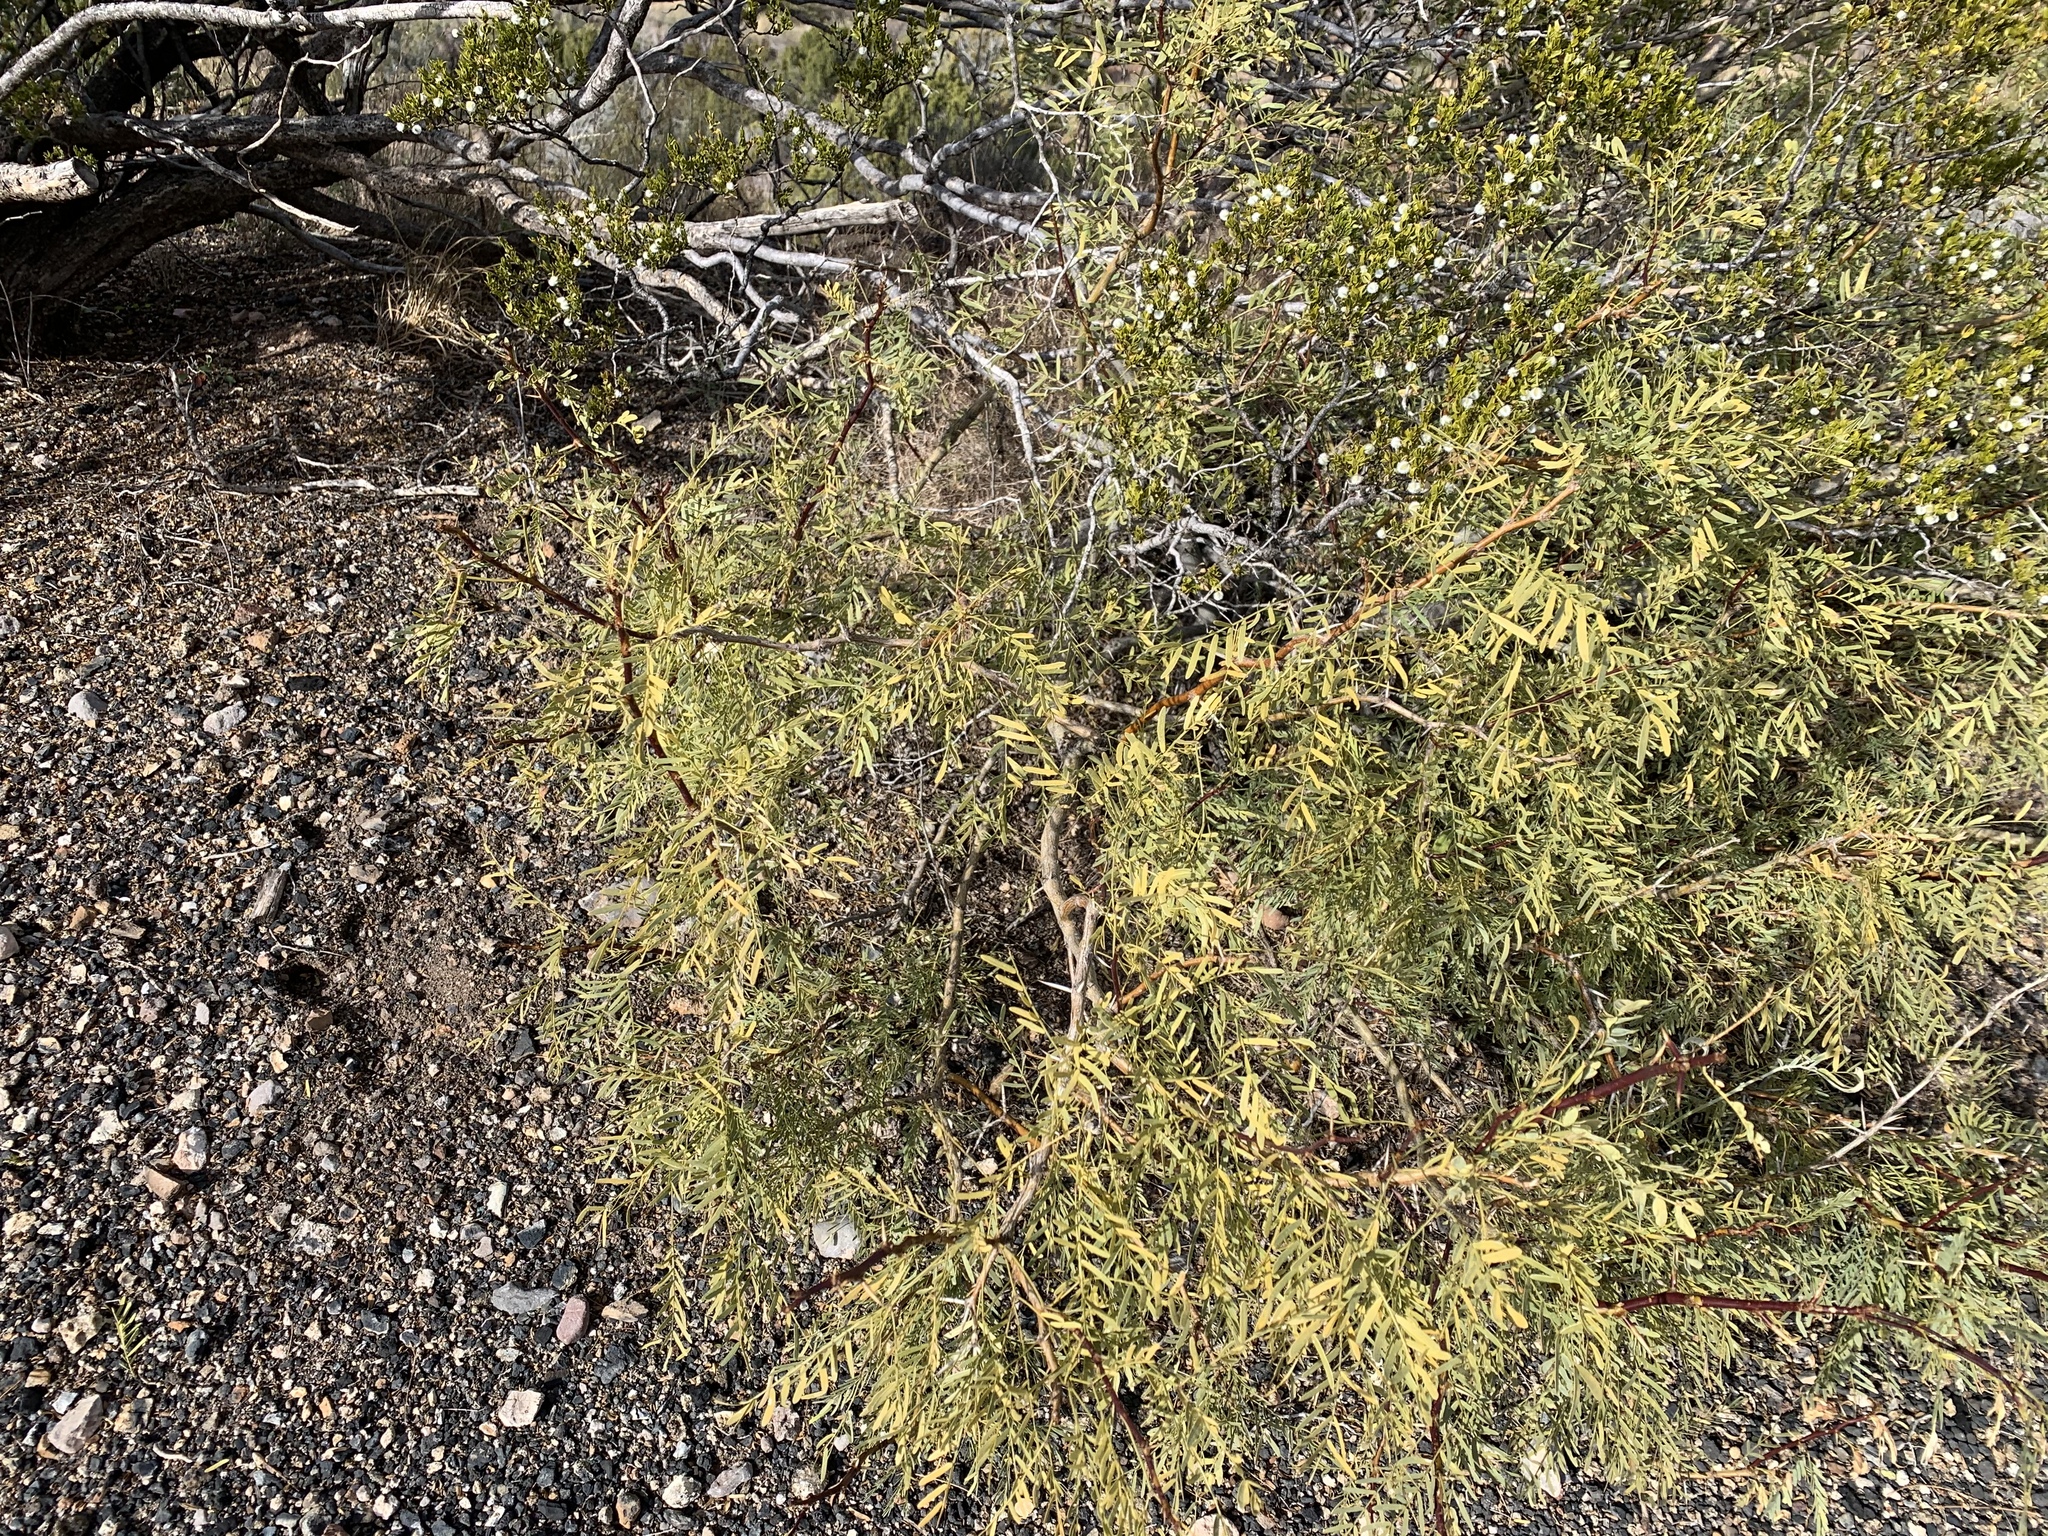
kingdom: Plantae
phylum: Tracheophyta
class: Magnoliopsida
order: Fabales
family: Fabaceae
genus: Prosopis
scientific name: Prosopis glandulosa
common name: Honey mesquite
